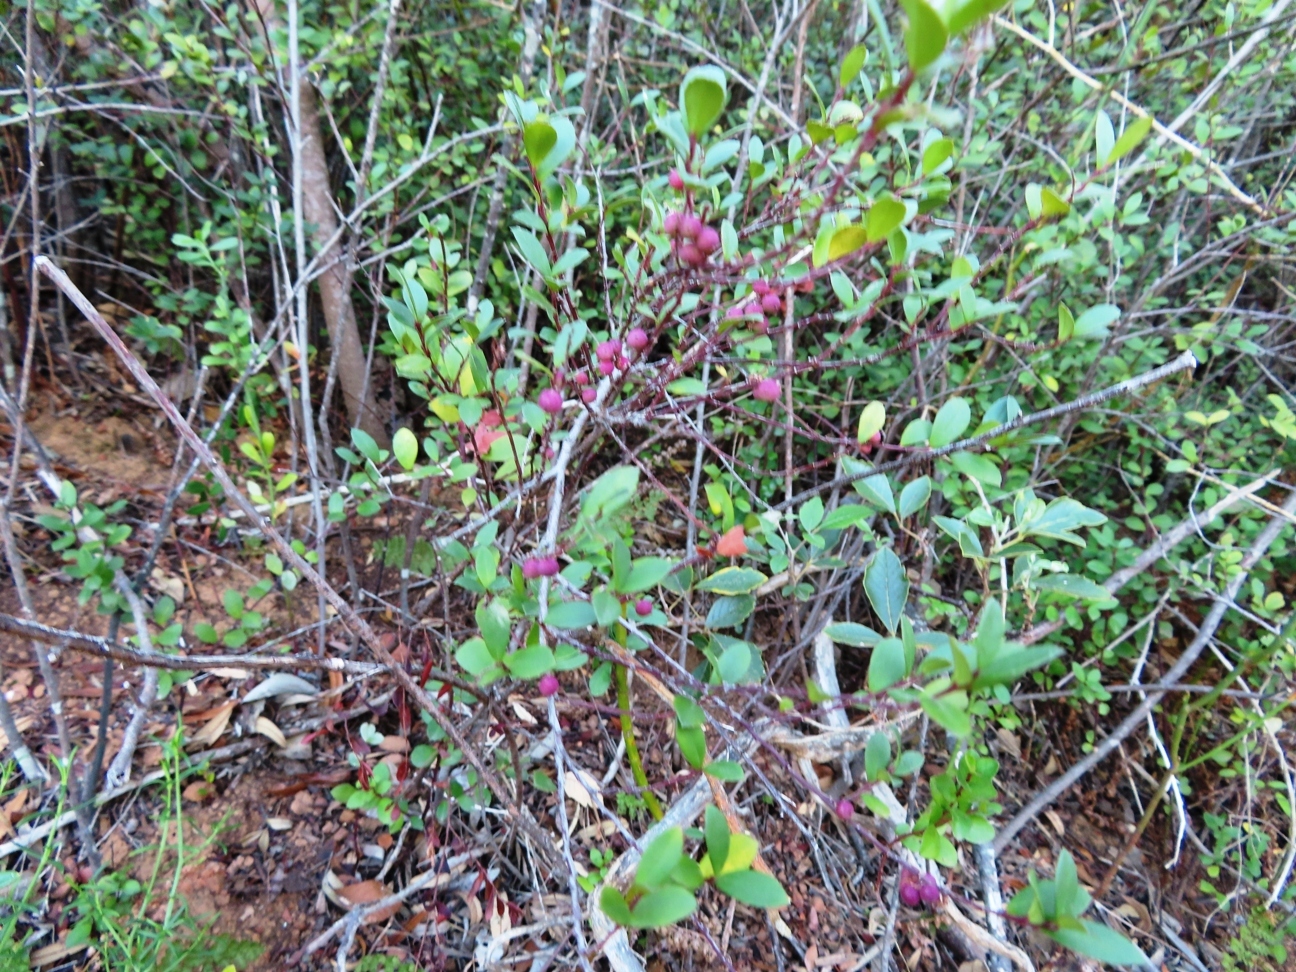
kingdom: Plantae
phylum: Tracheophyta
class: Magnoliopsida
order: Ericales
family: Primulaceae
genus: Myrsine
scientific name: Myrsine africana
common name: African-boxwood
